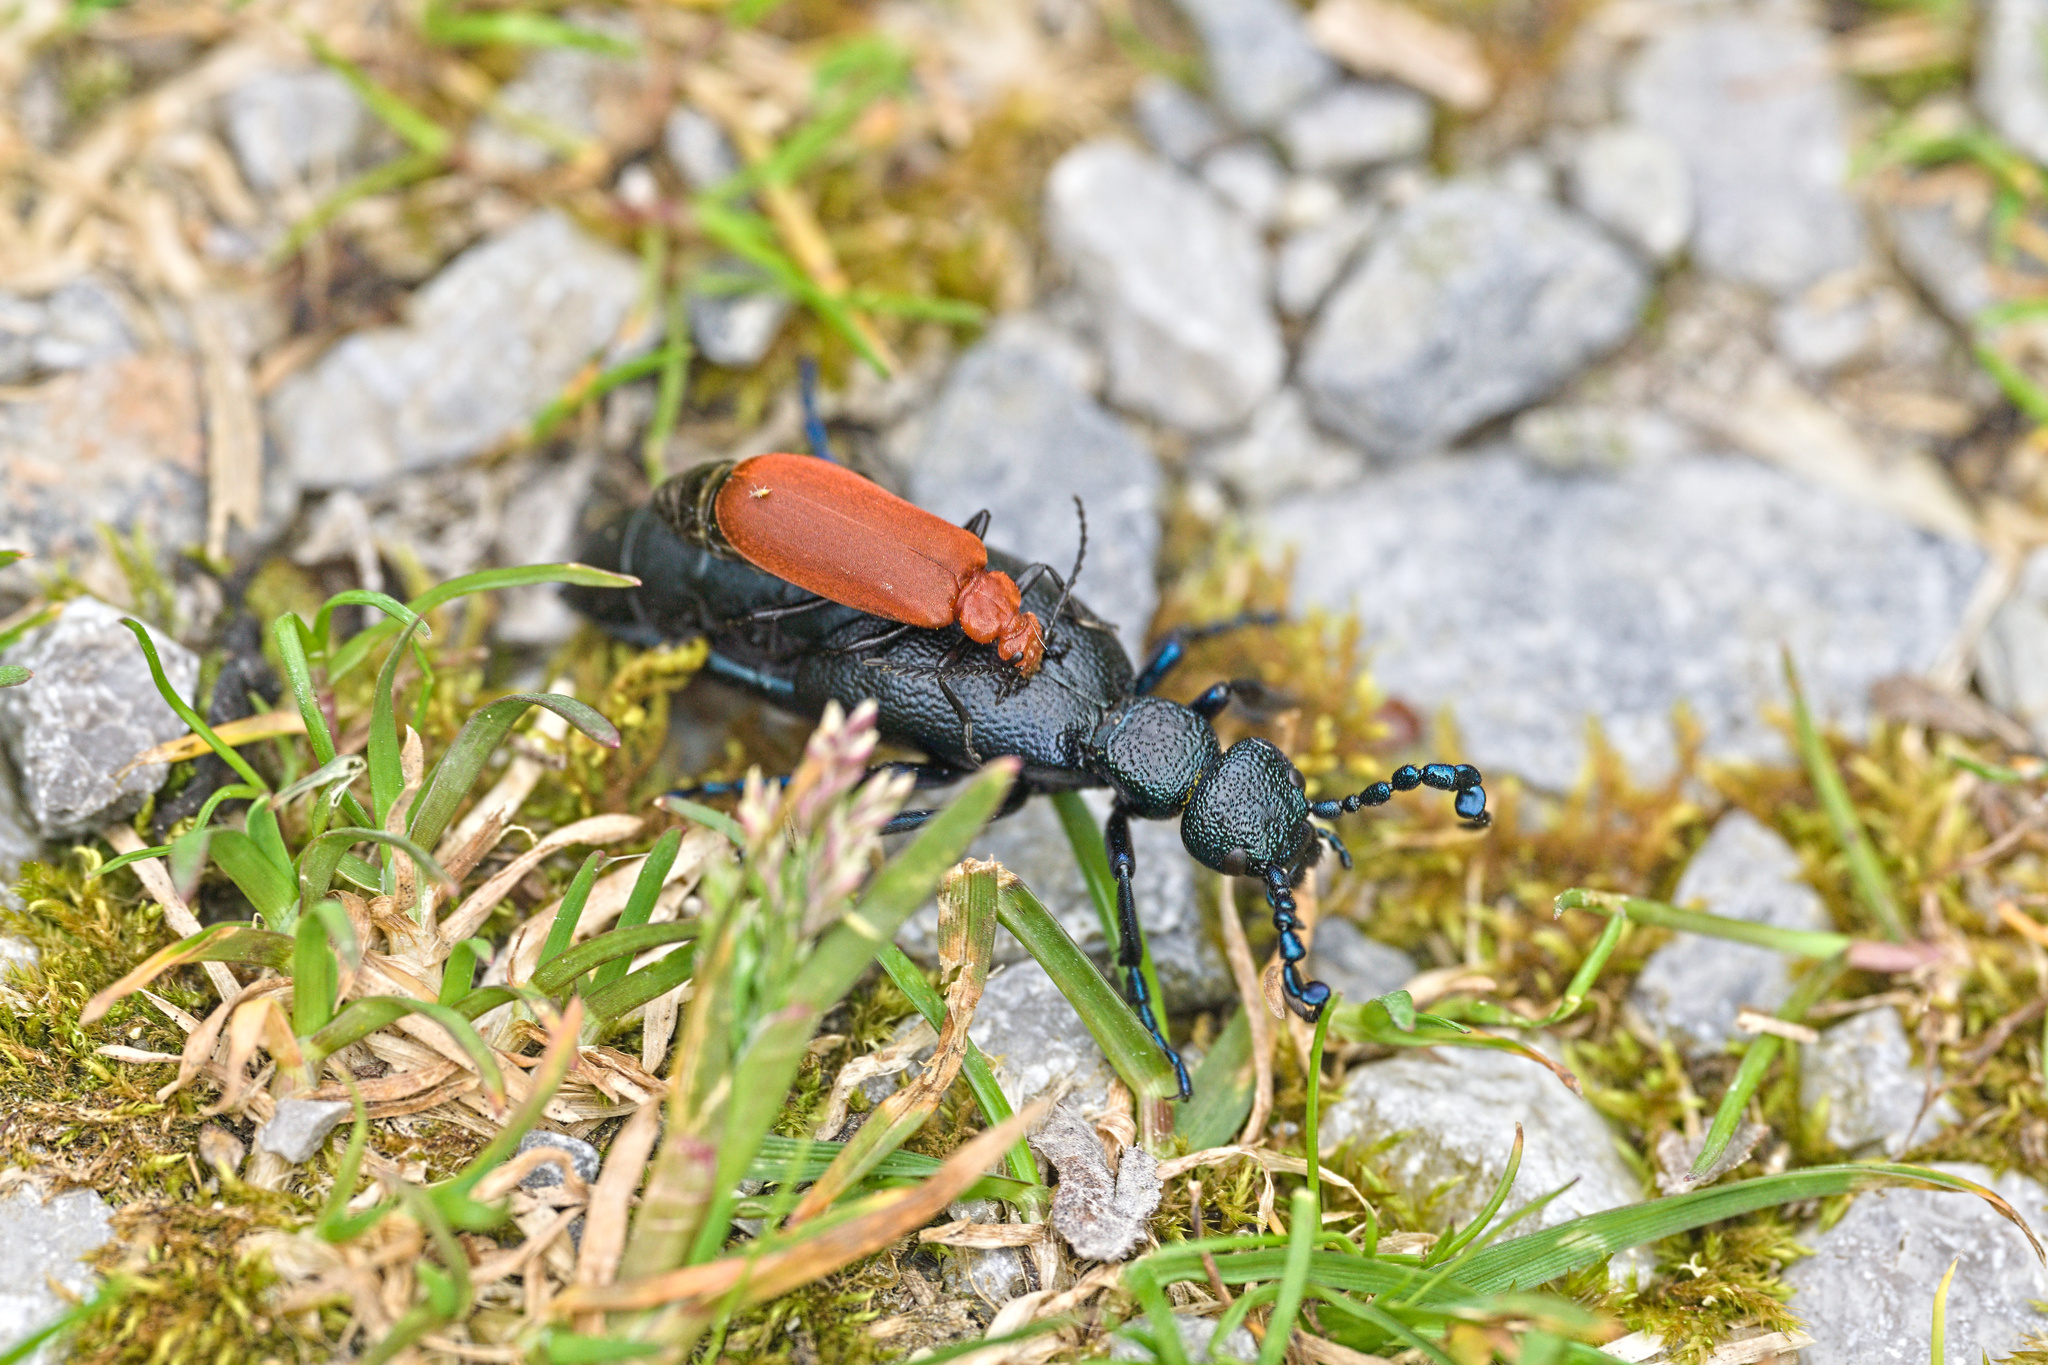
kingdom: Animalia
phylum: Arthropoda
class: Insecta
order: Coleoptera
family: Pyrochroidae
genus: Pyrochroa
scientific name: Pyrochroa serraticornis
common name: Red-headed cardinal beetle
